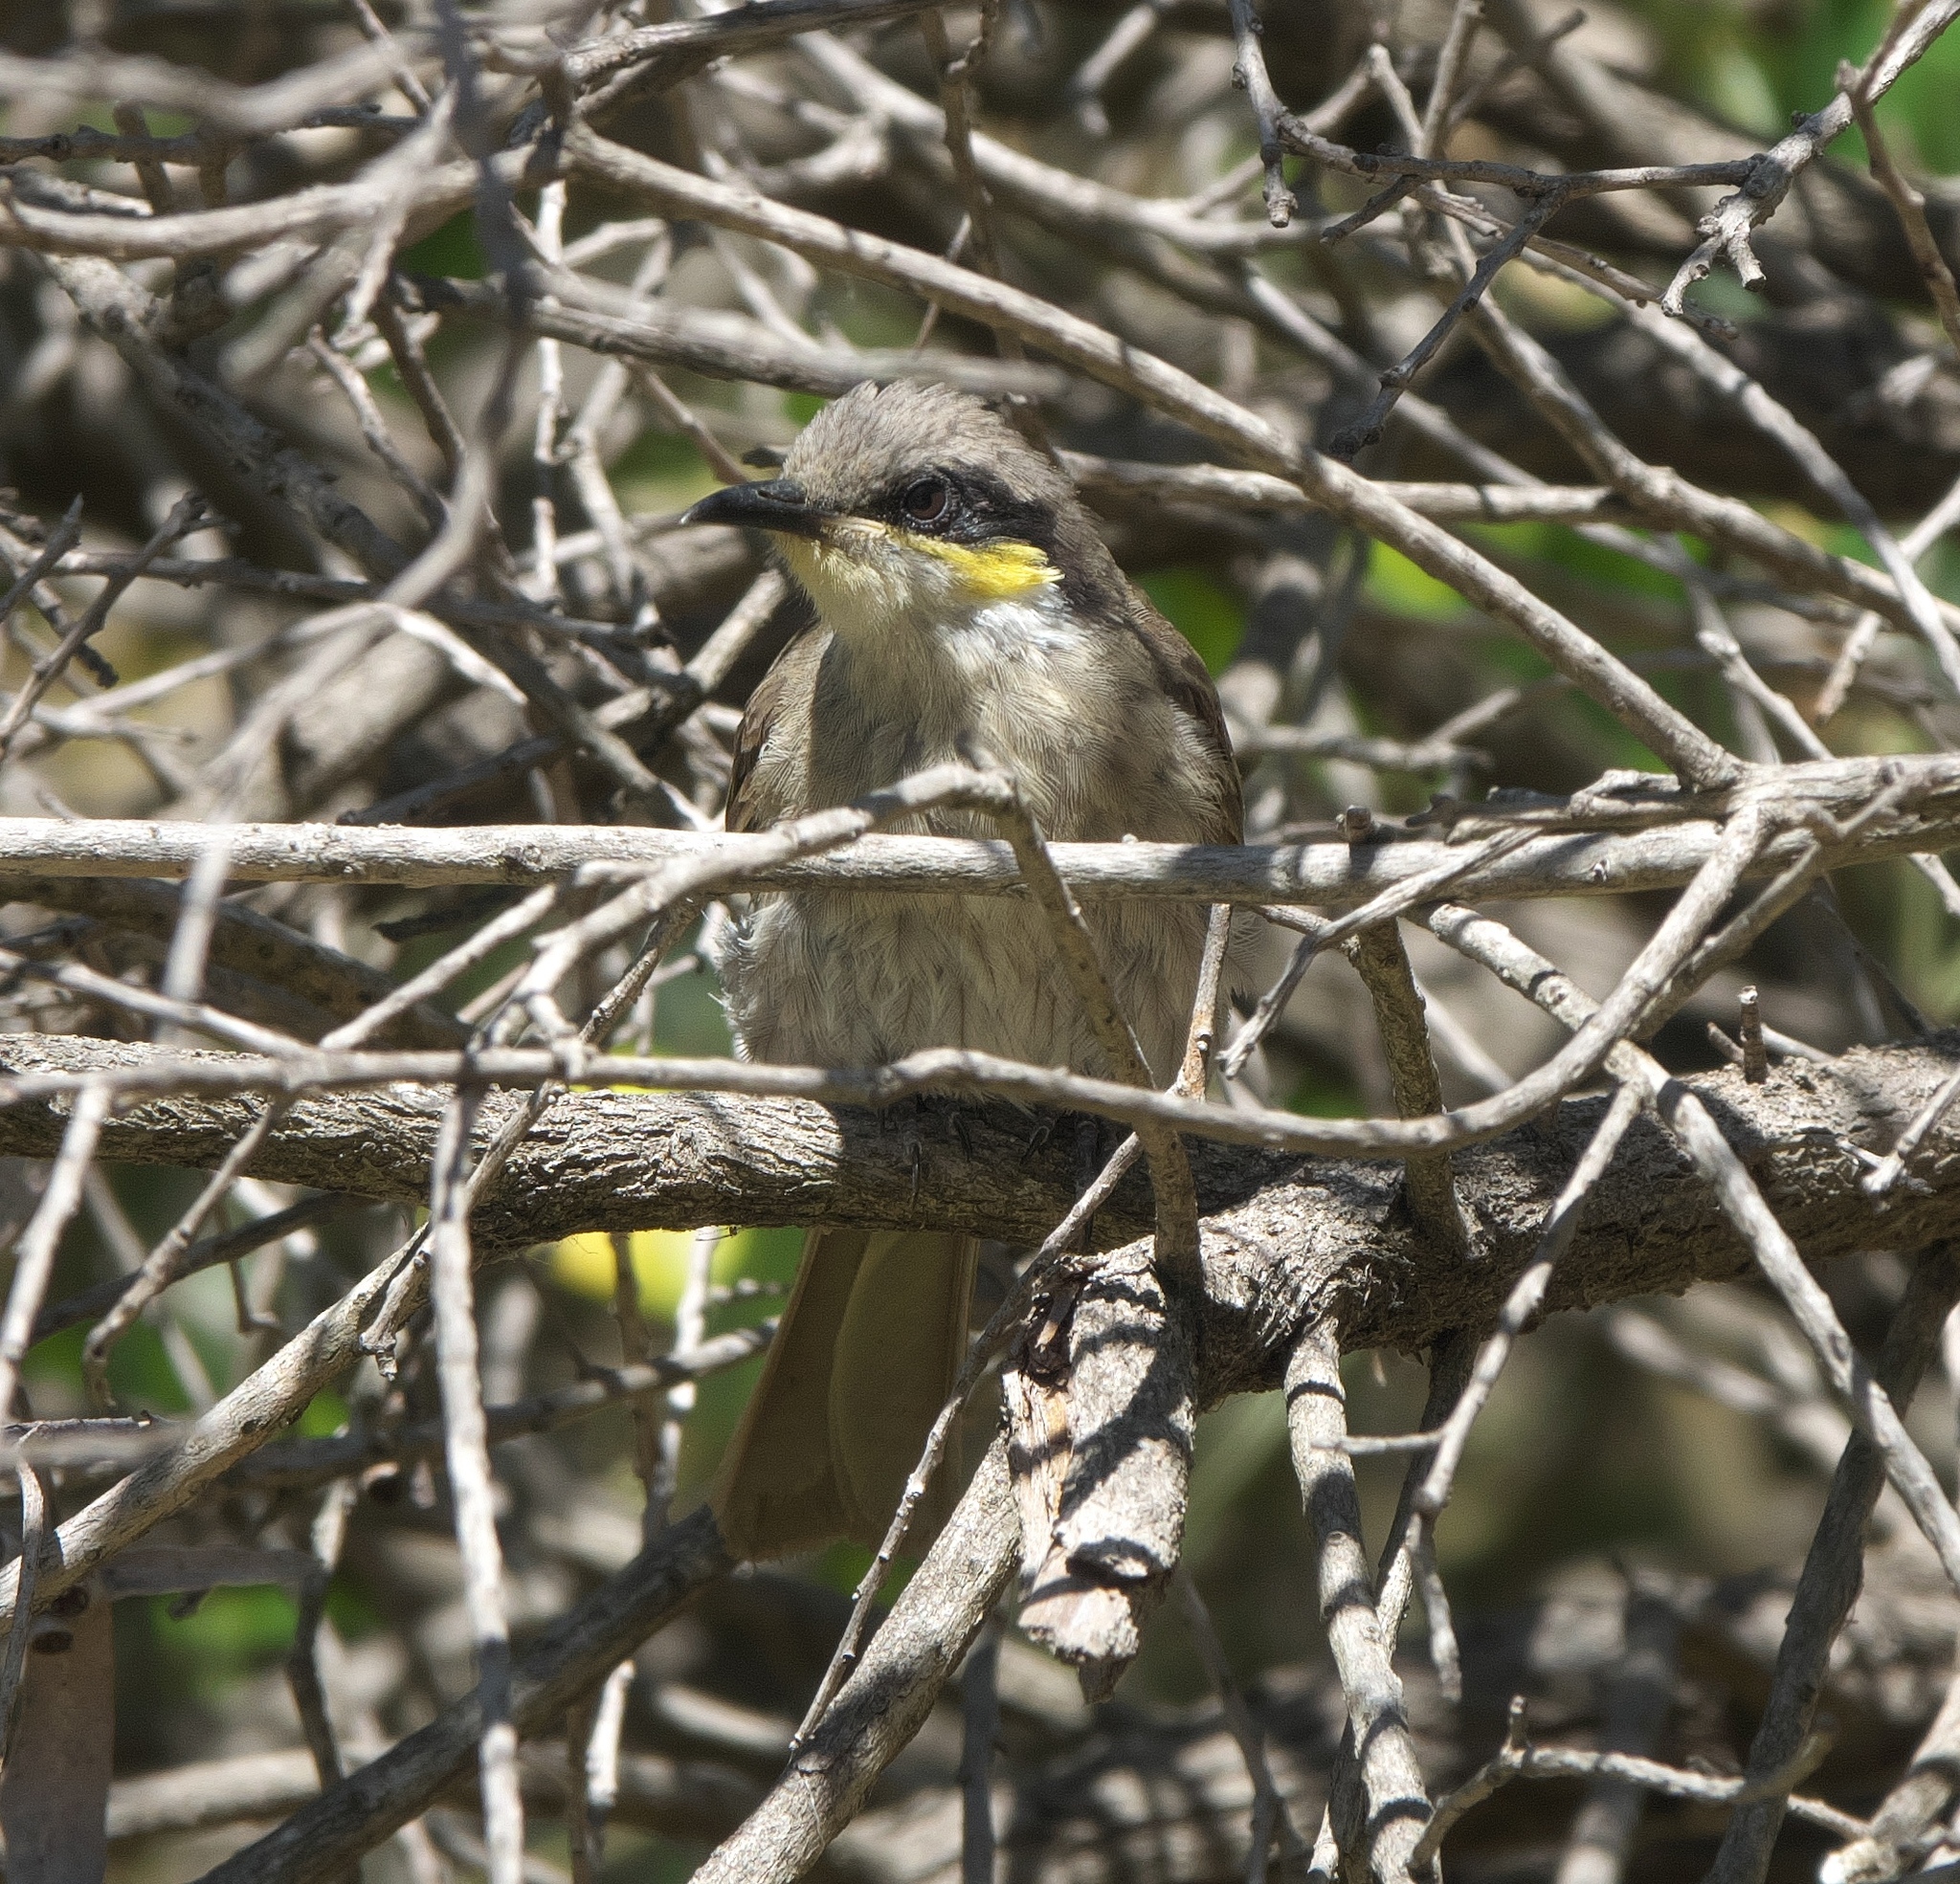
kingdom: Animalia
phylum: Chordata
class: Aves
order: Passeriformes
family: Meliphagidae
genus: Gavicalis
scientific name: Gavicalis virescens
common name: Singing honeyeater
